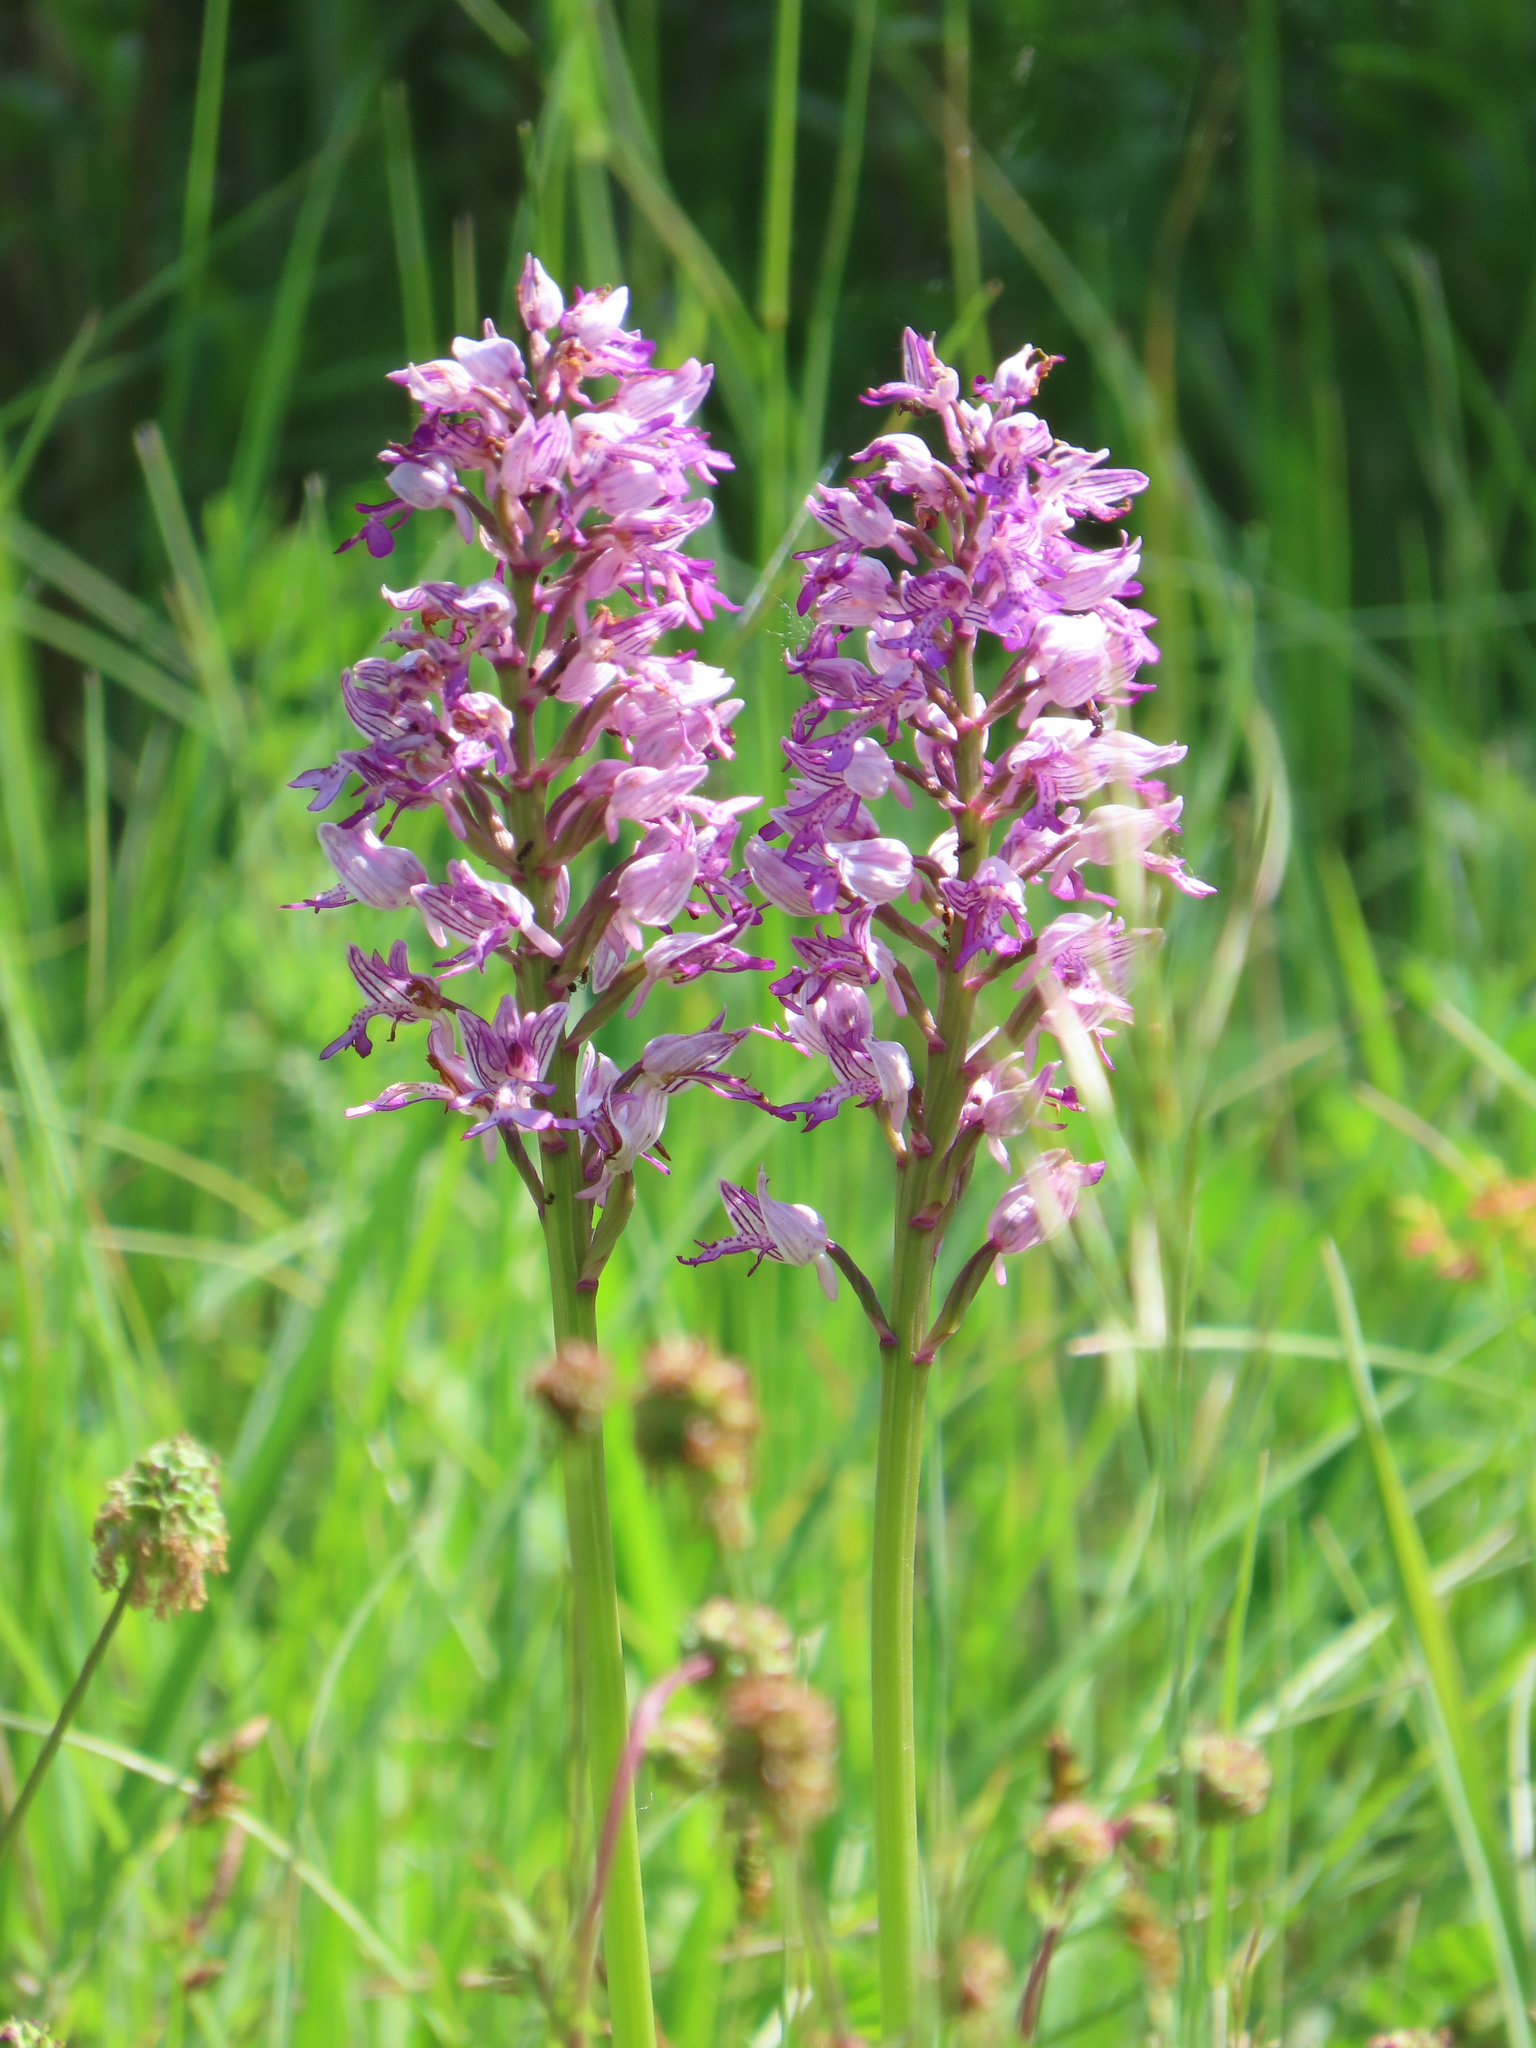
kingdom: Plantae
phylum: Tracheophyta
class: Liliopsida
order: Asparagales
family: Orchidaceae
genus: Orchis
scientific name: Orchis militaris
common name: Military orchid
